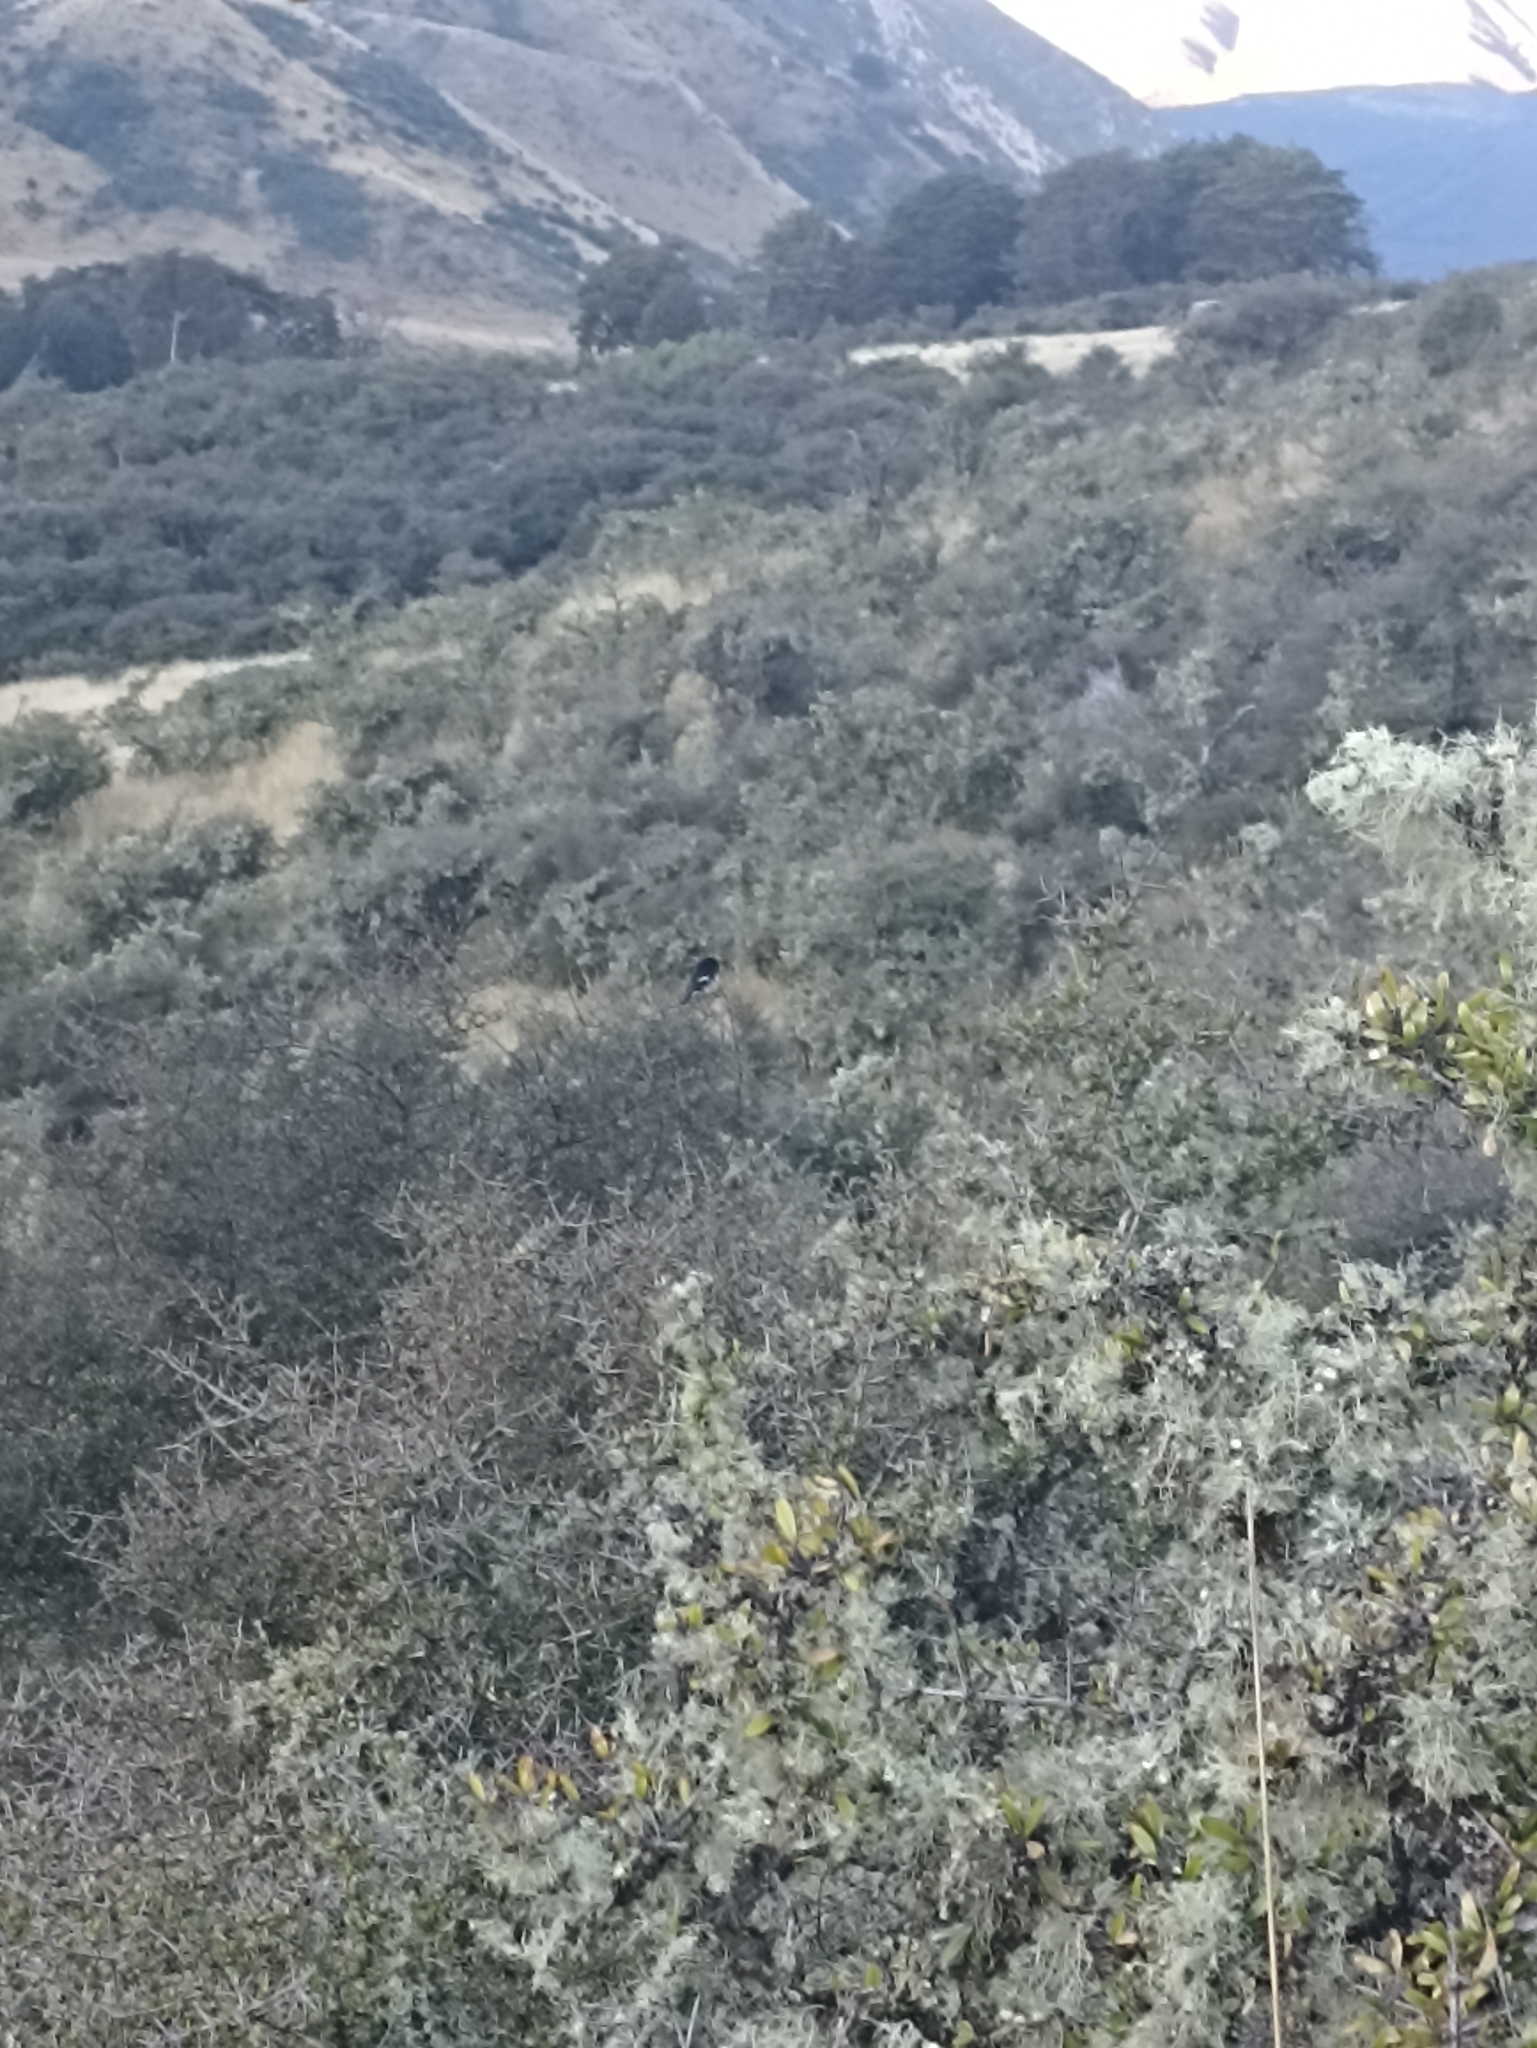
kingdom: Animalia
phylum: Chordata
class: Aves
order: Passeriformes
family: Petroicidae
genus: Petroica
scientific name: Petroica macrocephala
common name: Tomtit
